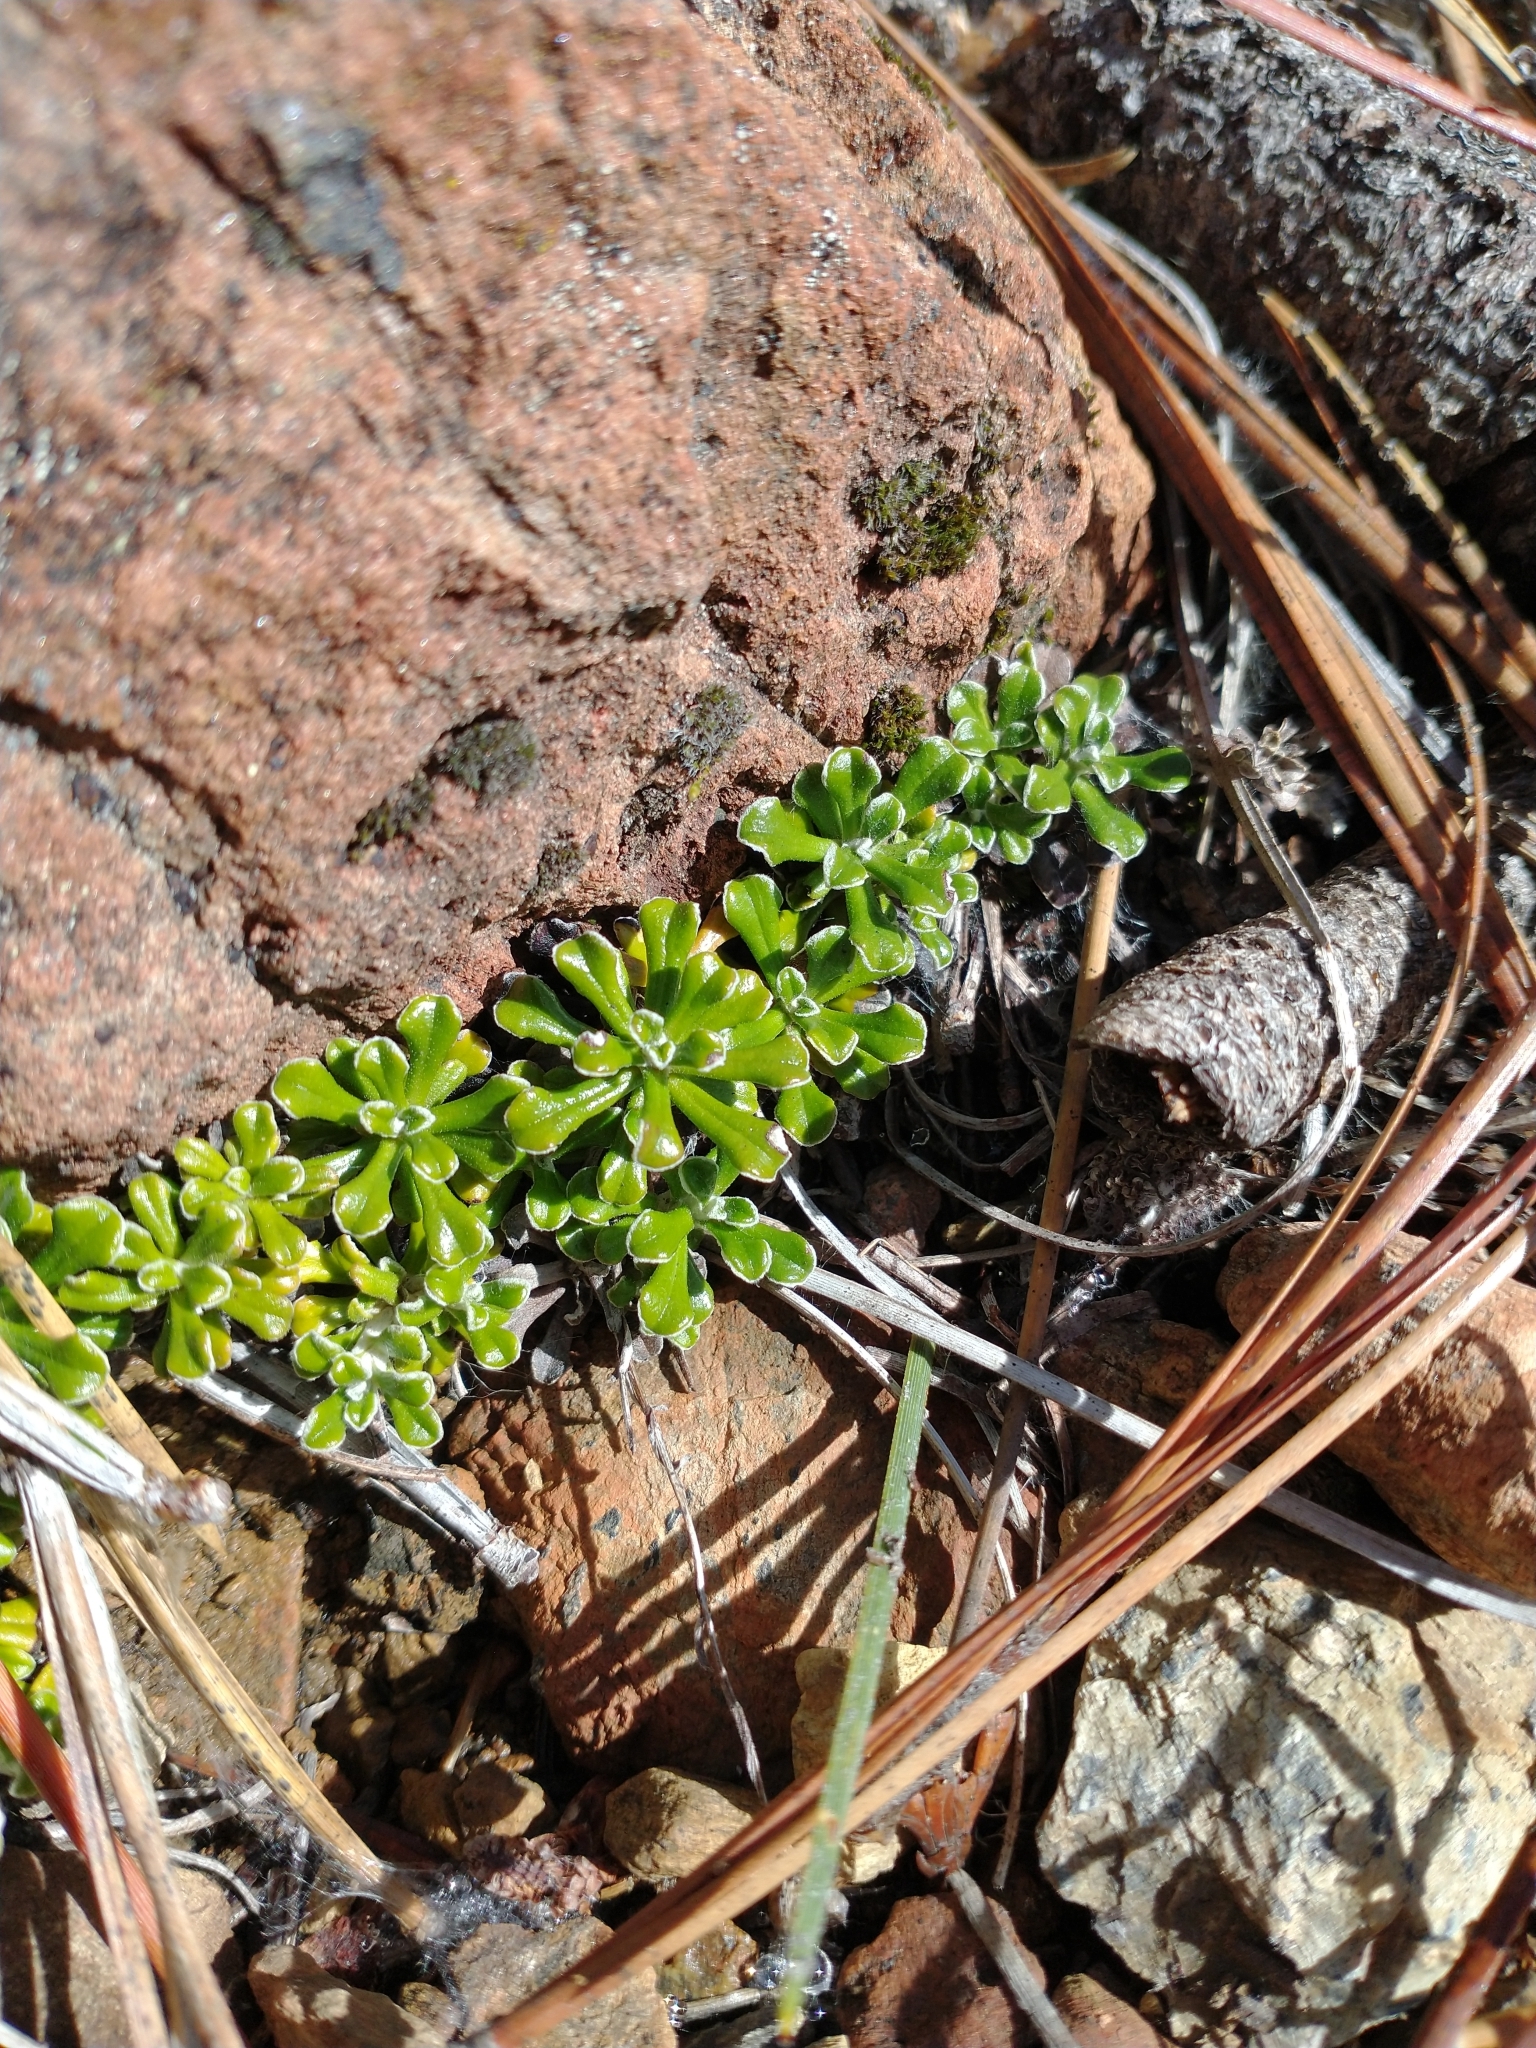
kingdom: Plantae
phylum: Tracheophyta
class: Magnoliopsida
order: Asterales
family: Asteraceae
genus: Antennaria
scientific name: Antennaria suffrutescens
